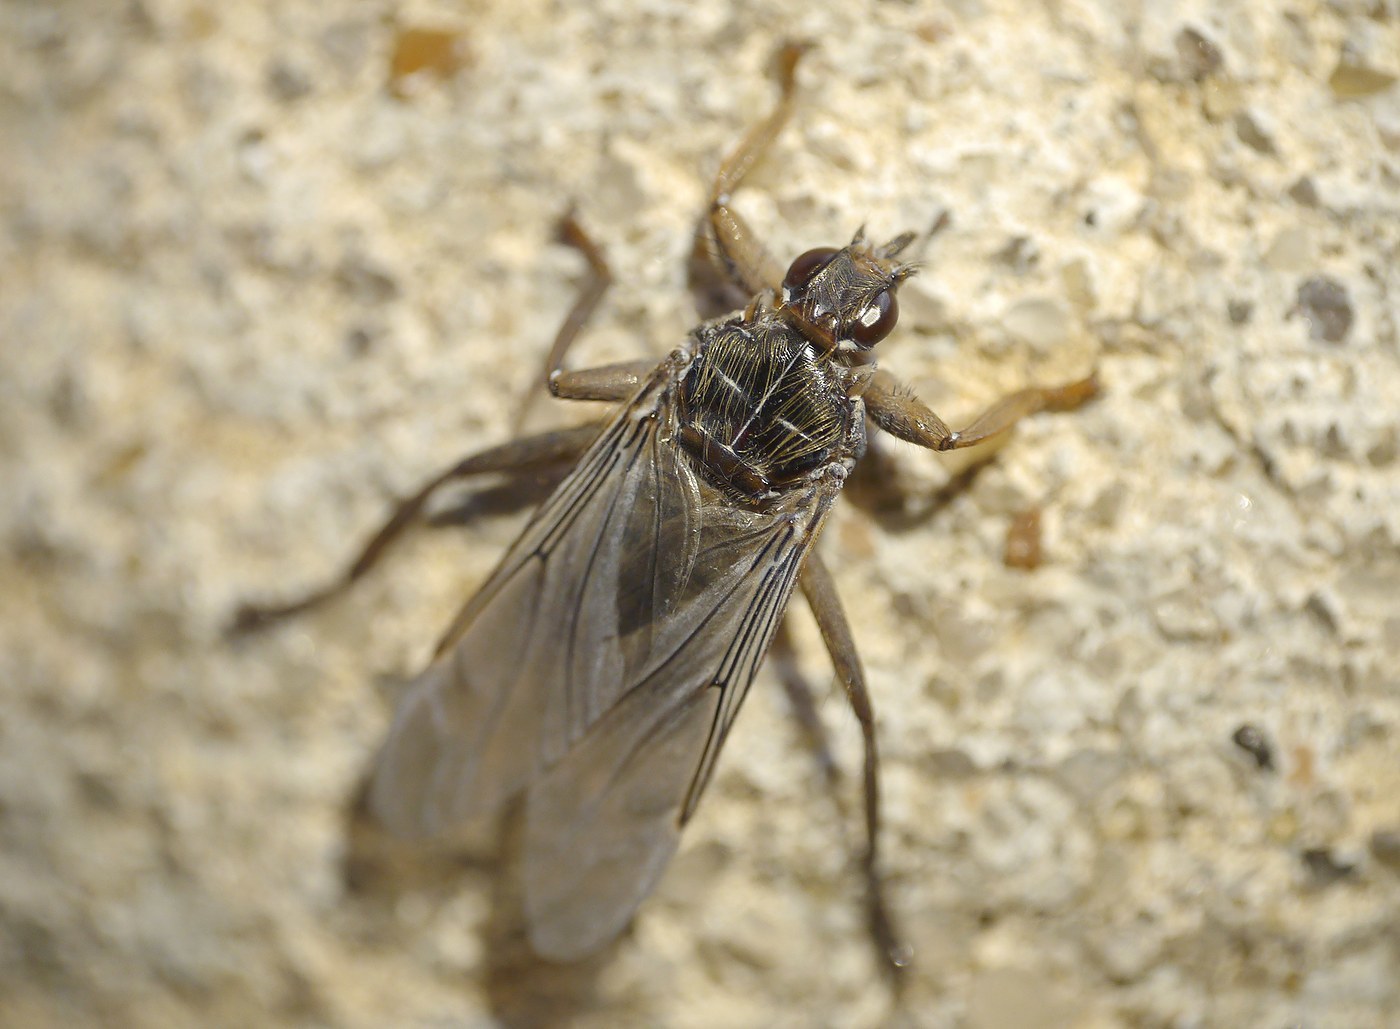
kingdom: Animalia
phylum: Arthropoda
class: Insecta
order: Diptera
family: Hippoboscidae
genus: Pseudolynchia
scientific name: Pseudolynchia canariensis
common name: Louse fly
